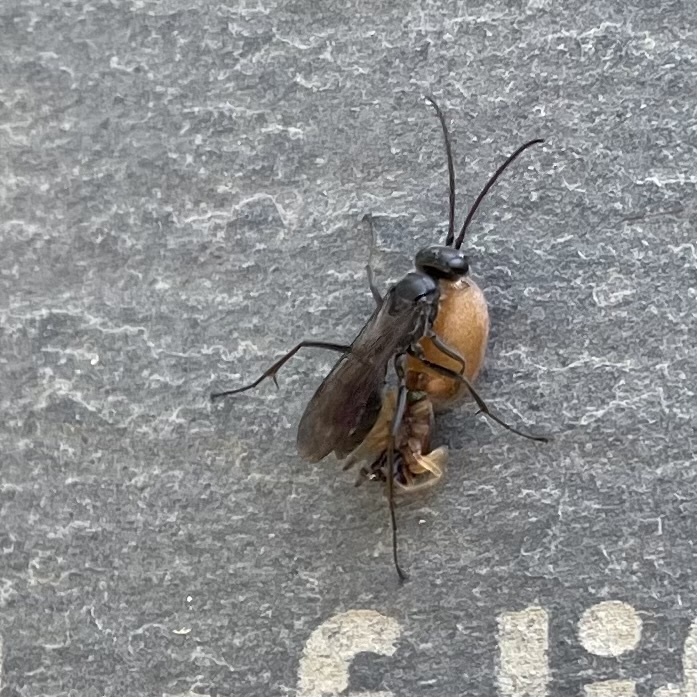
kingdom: Animalia
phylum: Arthropoda
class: Insecta
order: Hymenoptera
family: Pompilidae
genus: Auplopus
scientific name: Auplopus carbonarius
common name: Spider wasp
